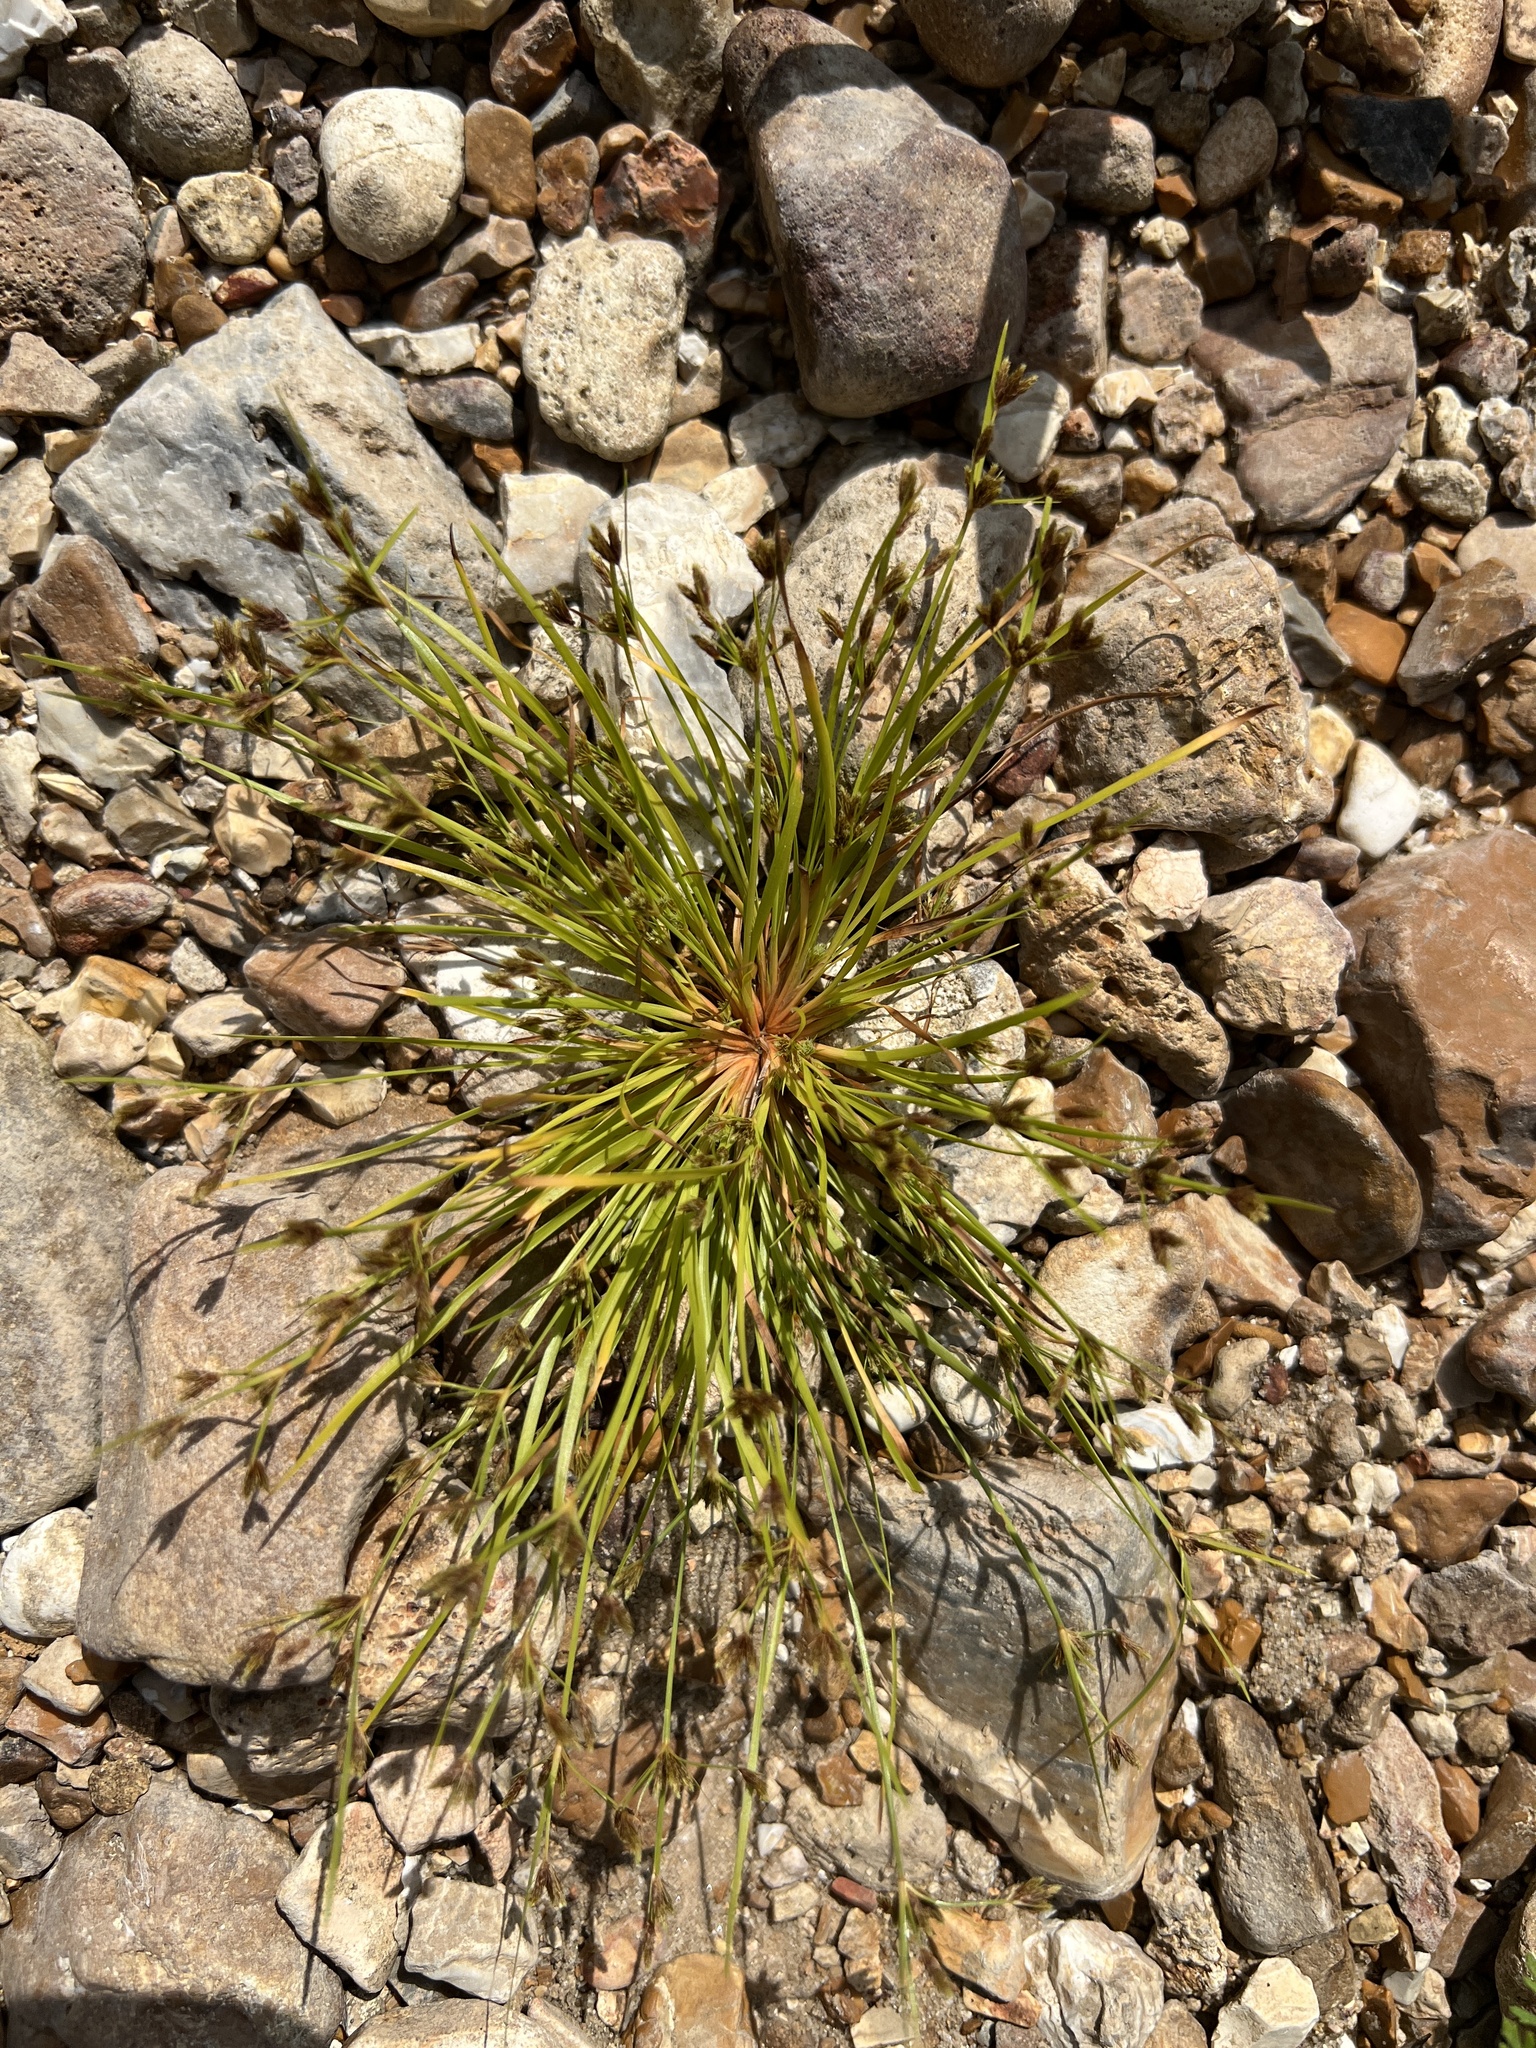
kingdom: Plantae
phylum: Tracheophyta
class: Liliopsida
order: Poales
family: Cyperaceae
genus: Fimbristylis
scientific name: Fimbristylis autumnalis
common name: Slender fimbristylis
